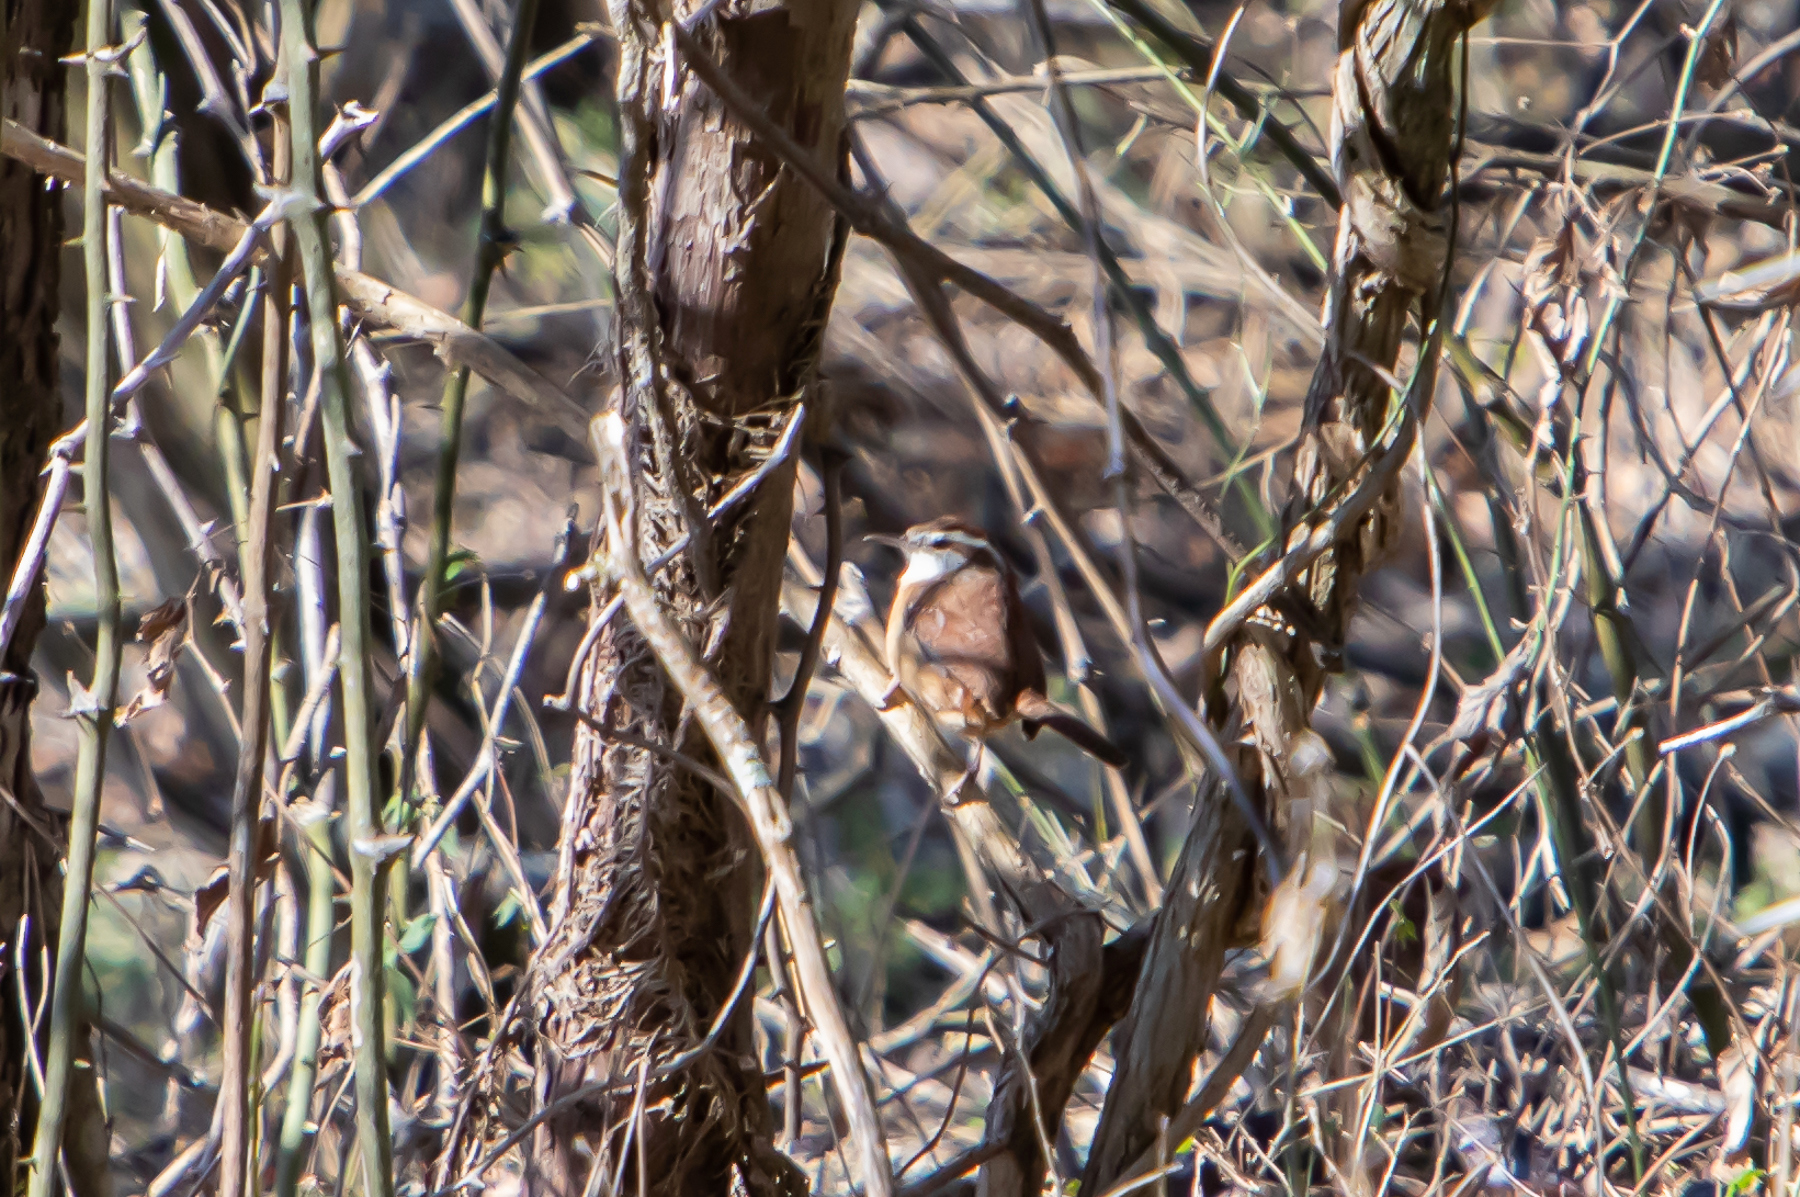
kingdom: Animalia
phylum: Chordata
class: Aves
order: Passeriformes
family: Troglodytidae
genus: Thryothorus
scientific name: Thryothorus ludovicianus
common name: Carolina wren
